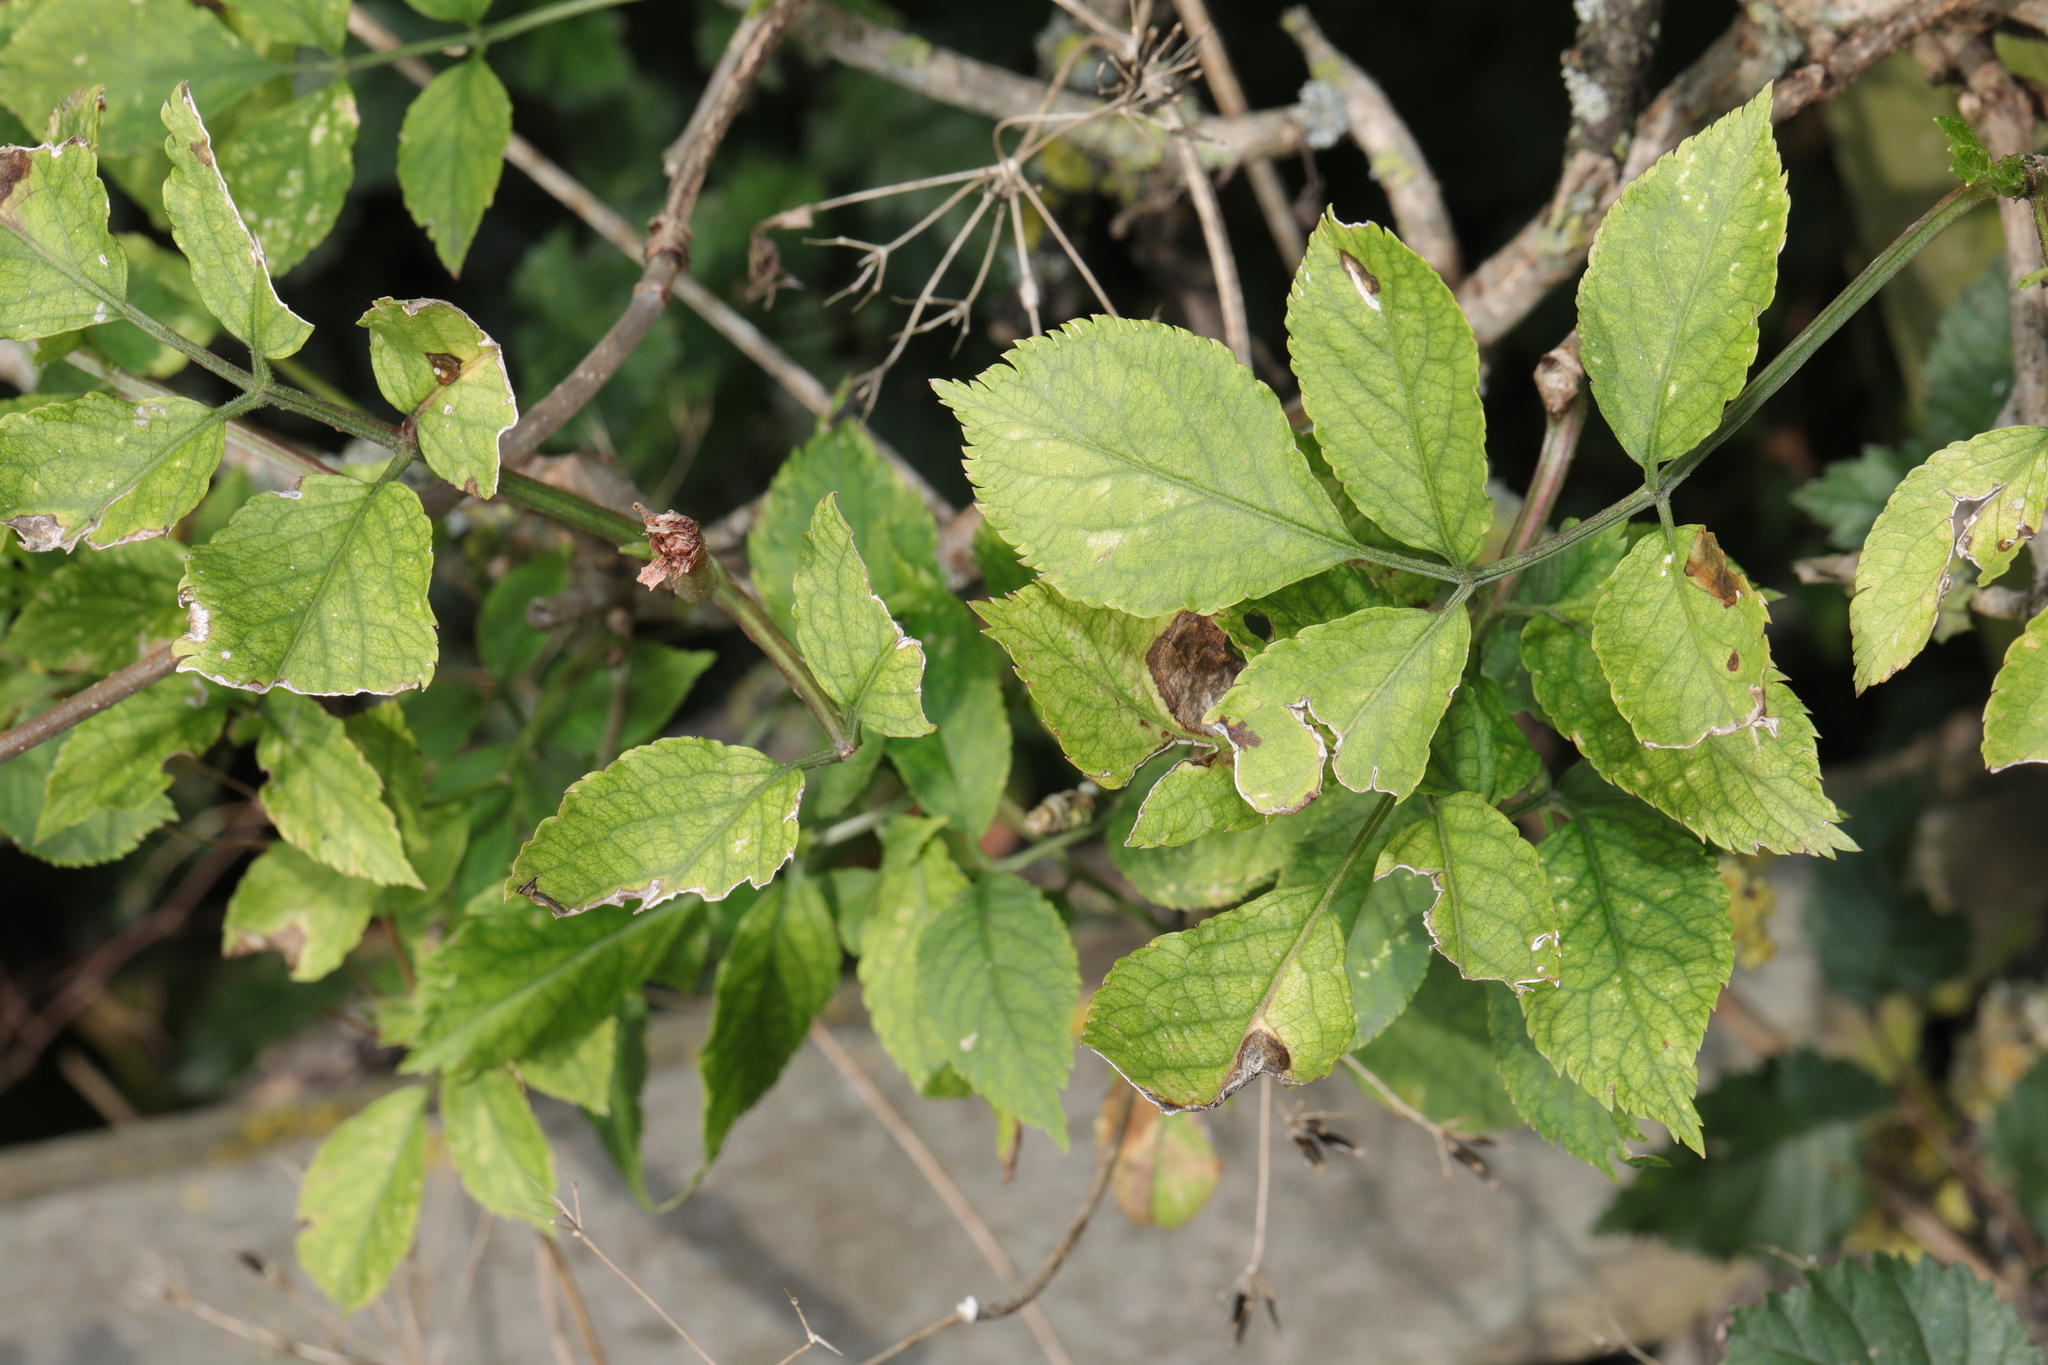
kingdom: Plantae
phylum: Tracheophyta
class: Magnoliopsida
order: Dipsacales
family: Viburnaceae
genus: Sambucus
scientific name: Sambucus nigra
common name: Elder
